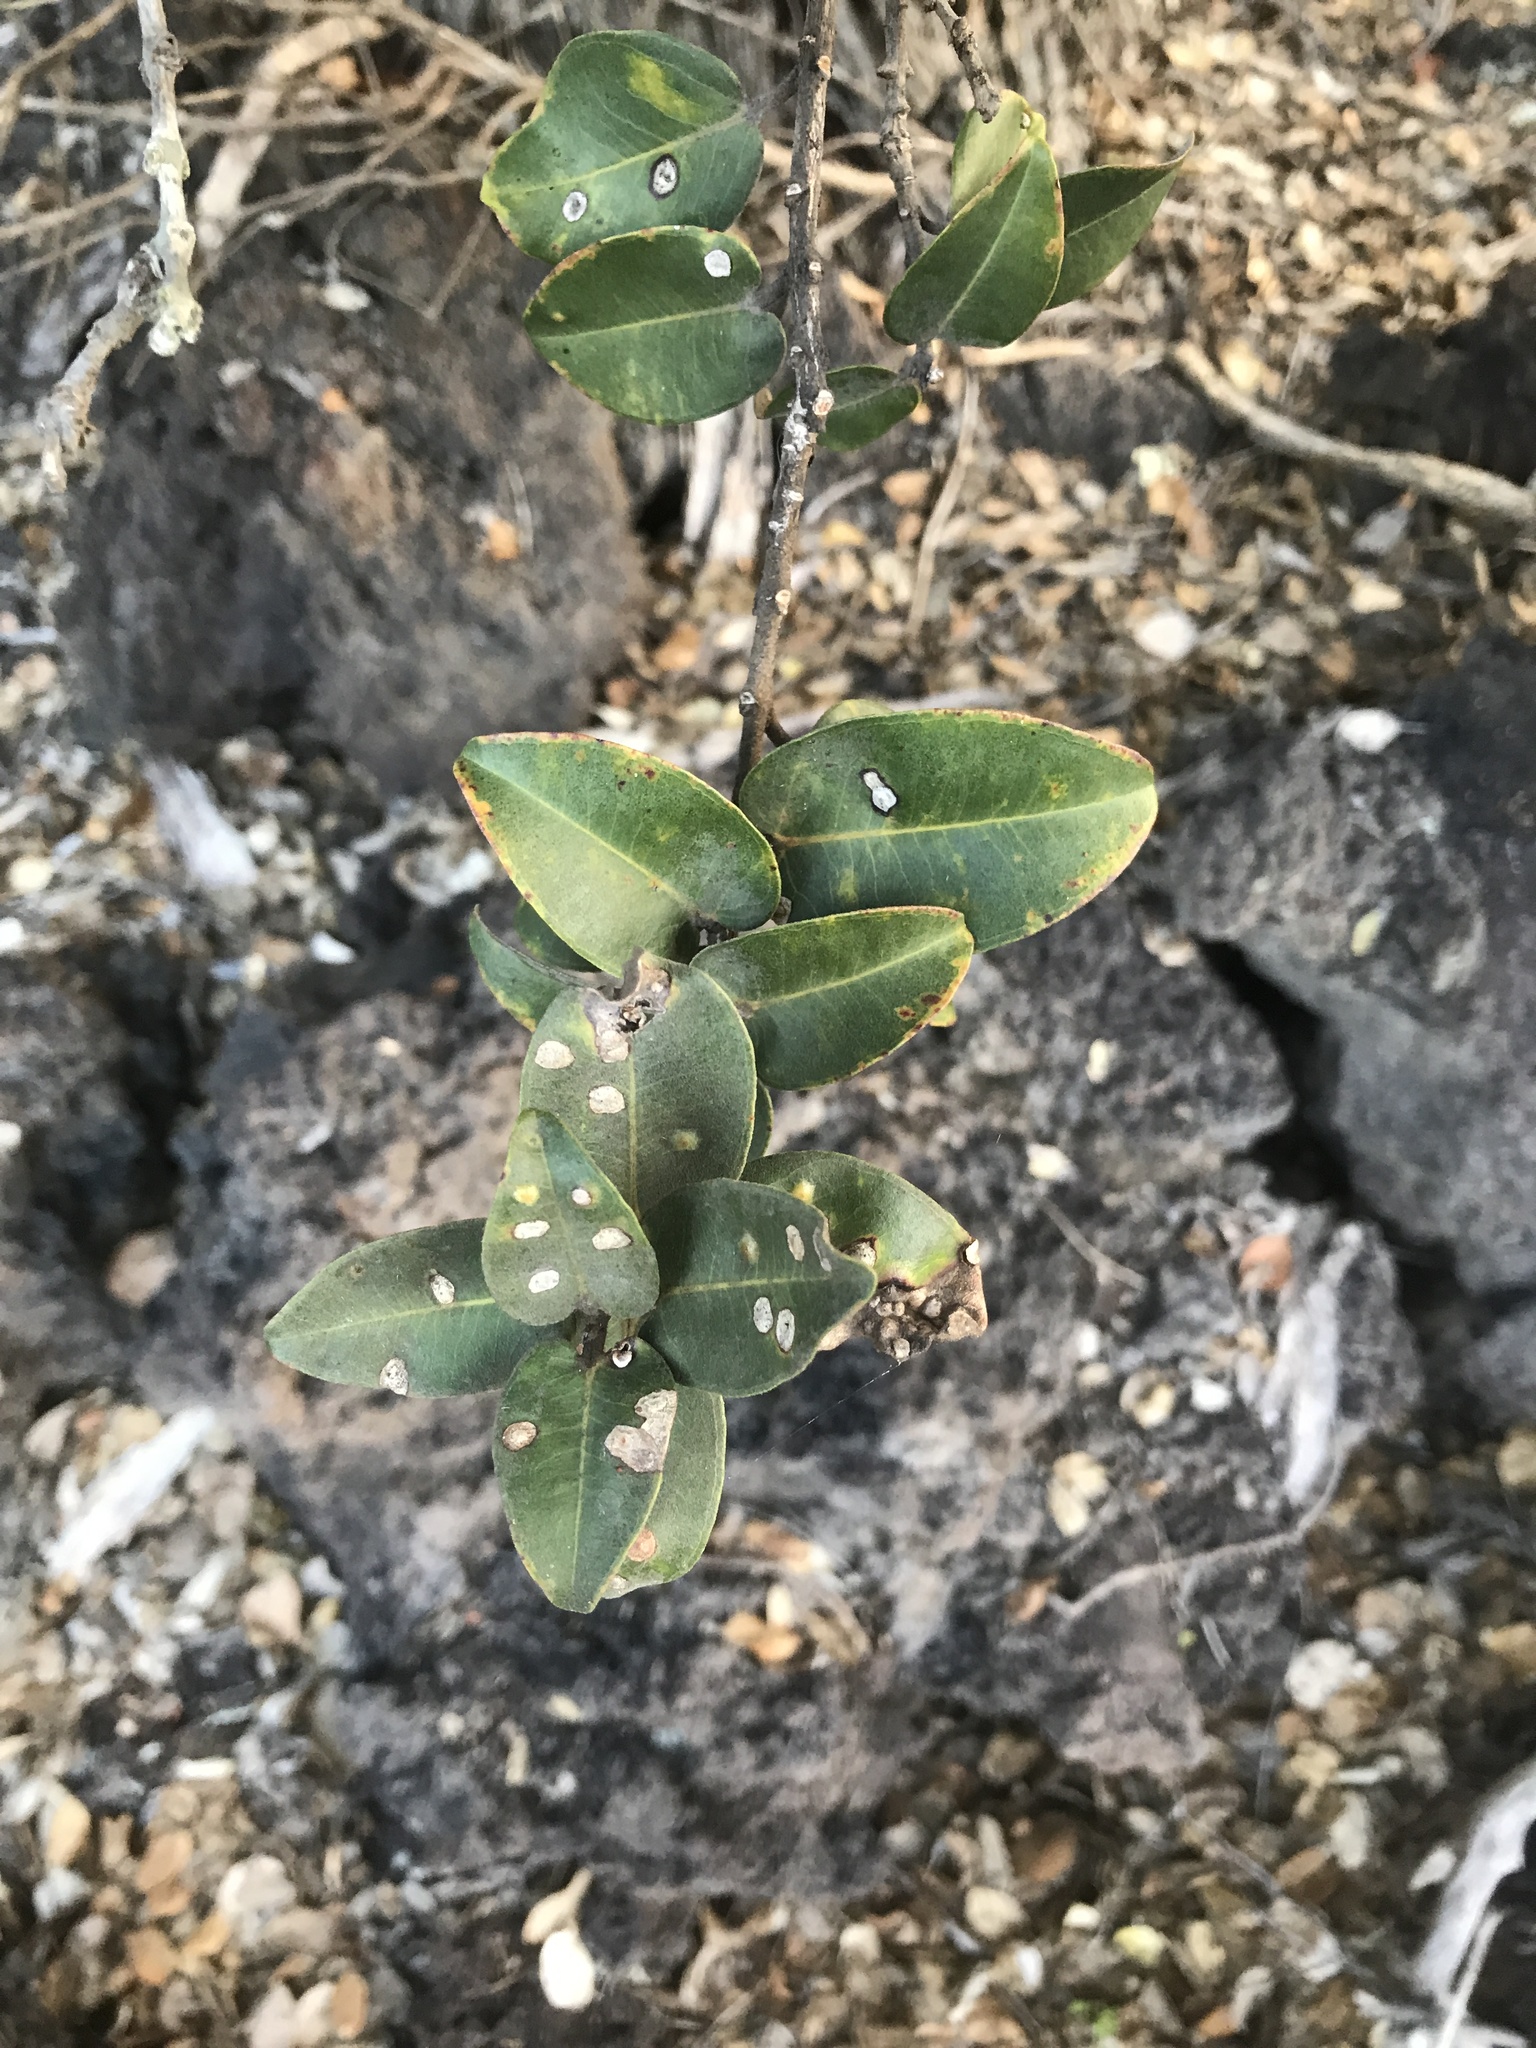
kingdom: Plantae
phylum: Tracheophyta
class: Magnoliopsida
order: Myrtales
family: Myrtaceae
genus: Metrosideros
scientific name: Metrosideros polymorpha
